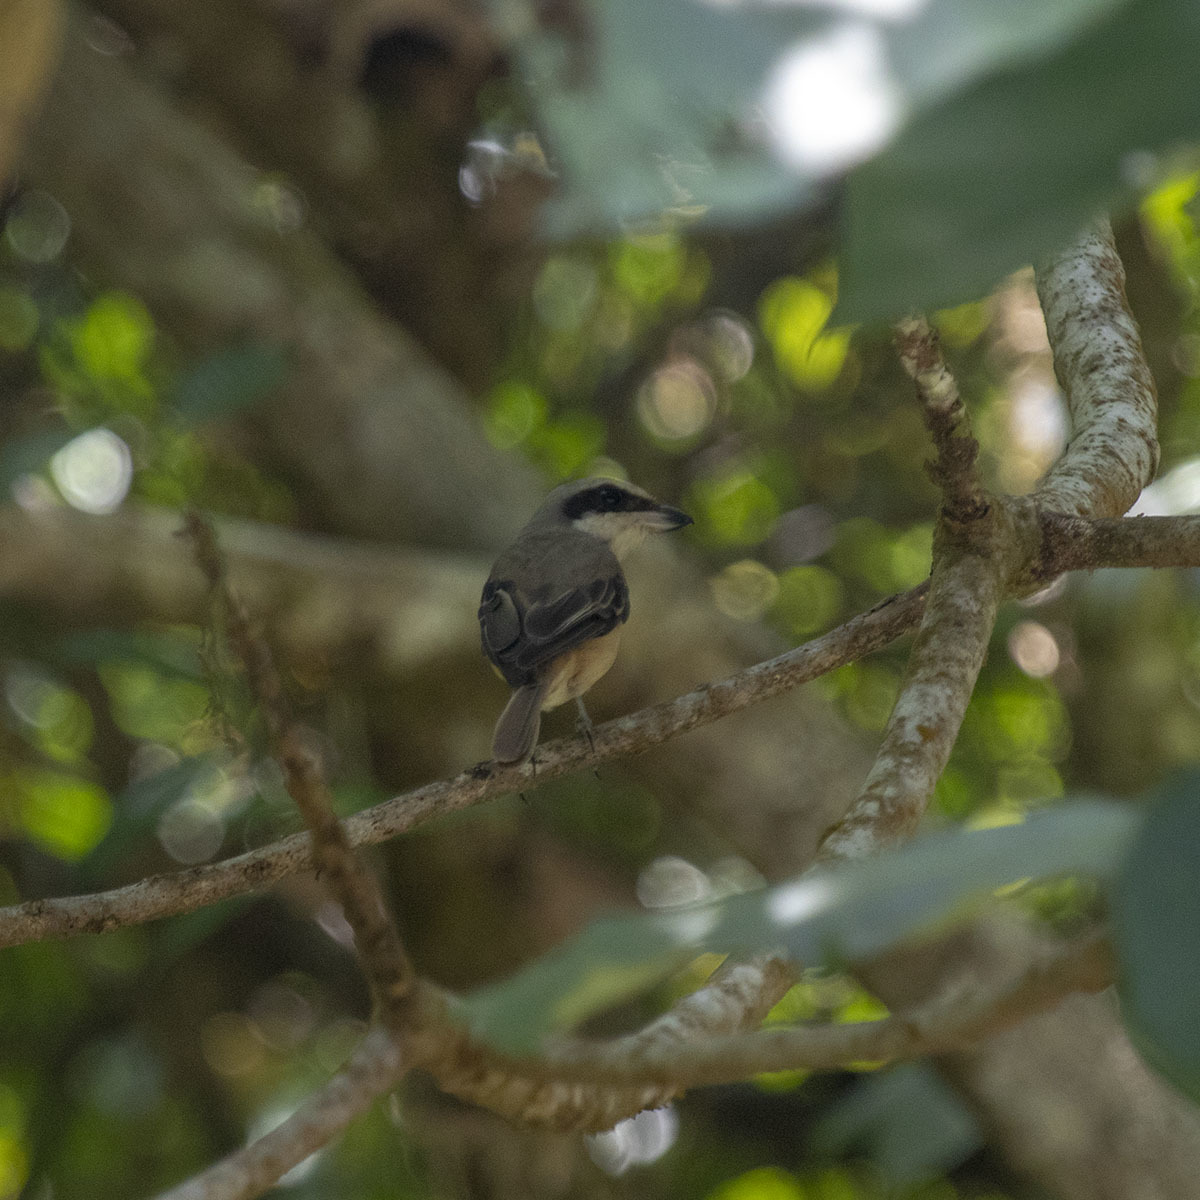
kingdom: Animalia
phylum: Chordata
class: Aves
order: Passeriformes
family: Laniidae
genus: Lanius
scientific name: Lanius cristatus
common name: Brown shrike
